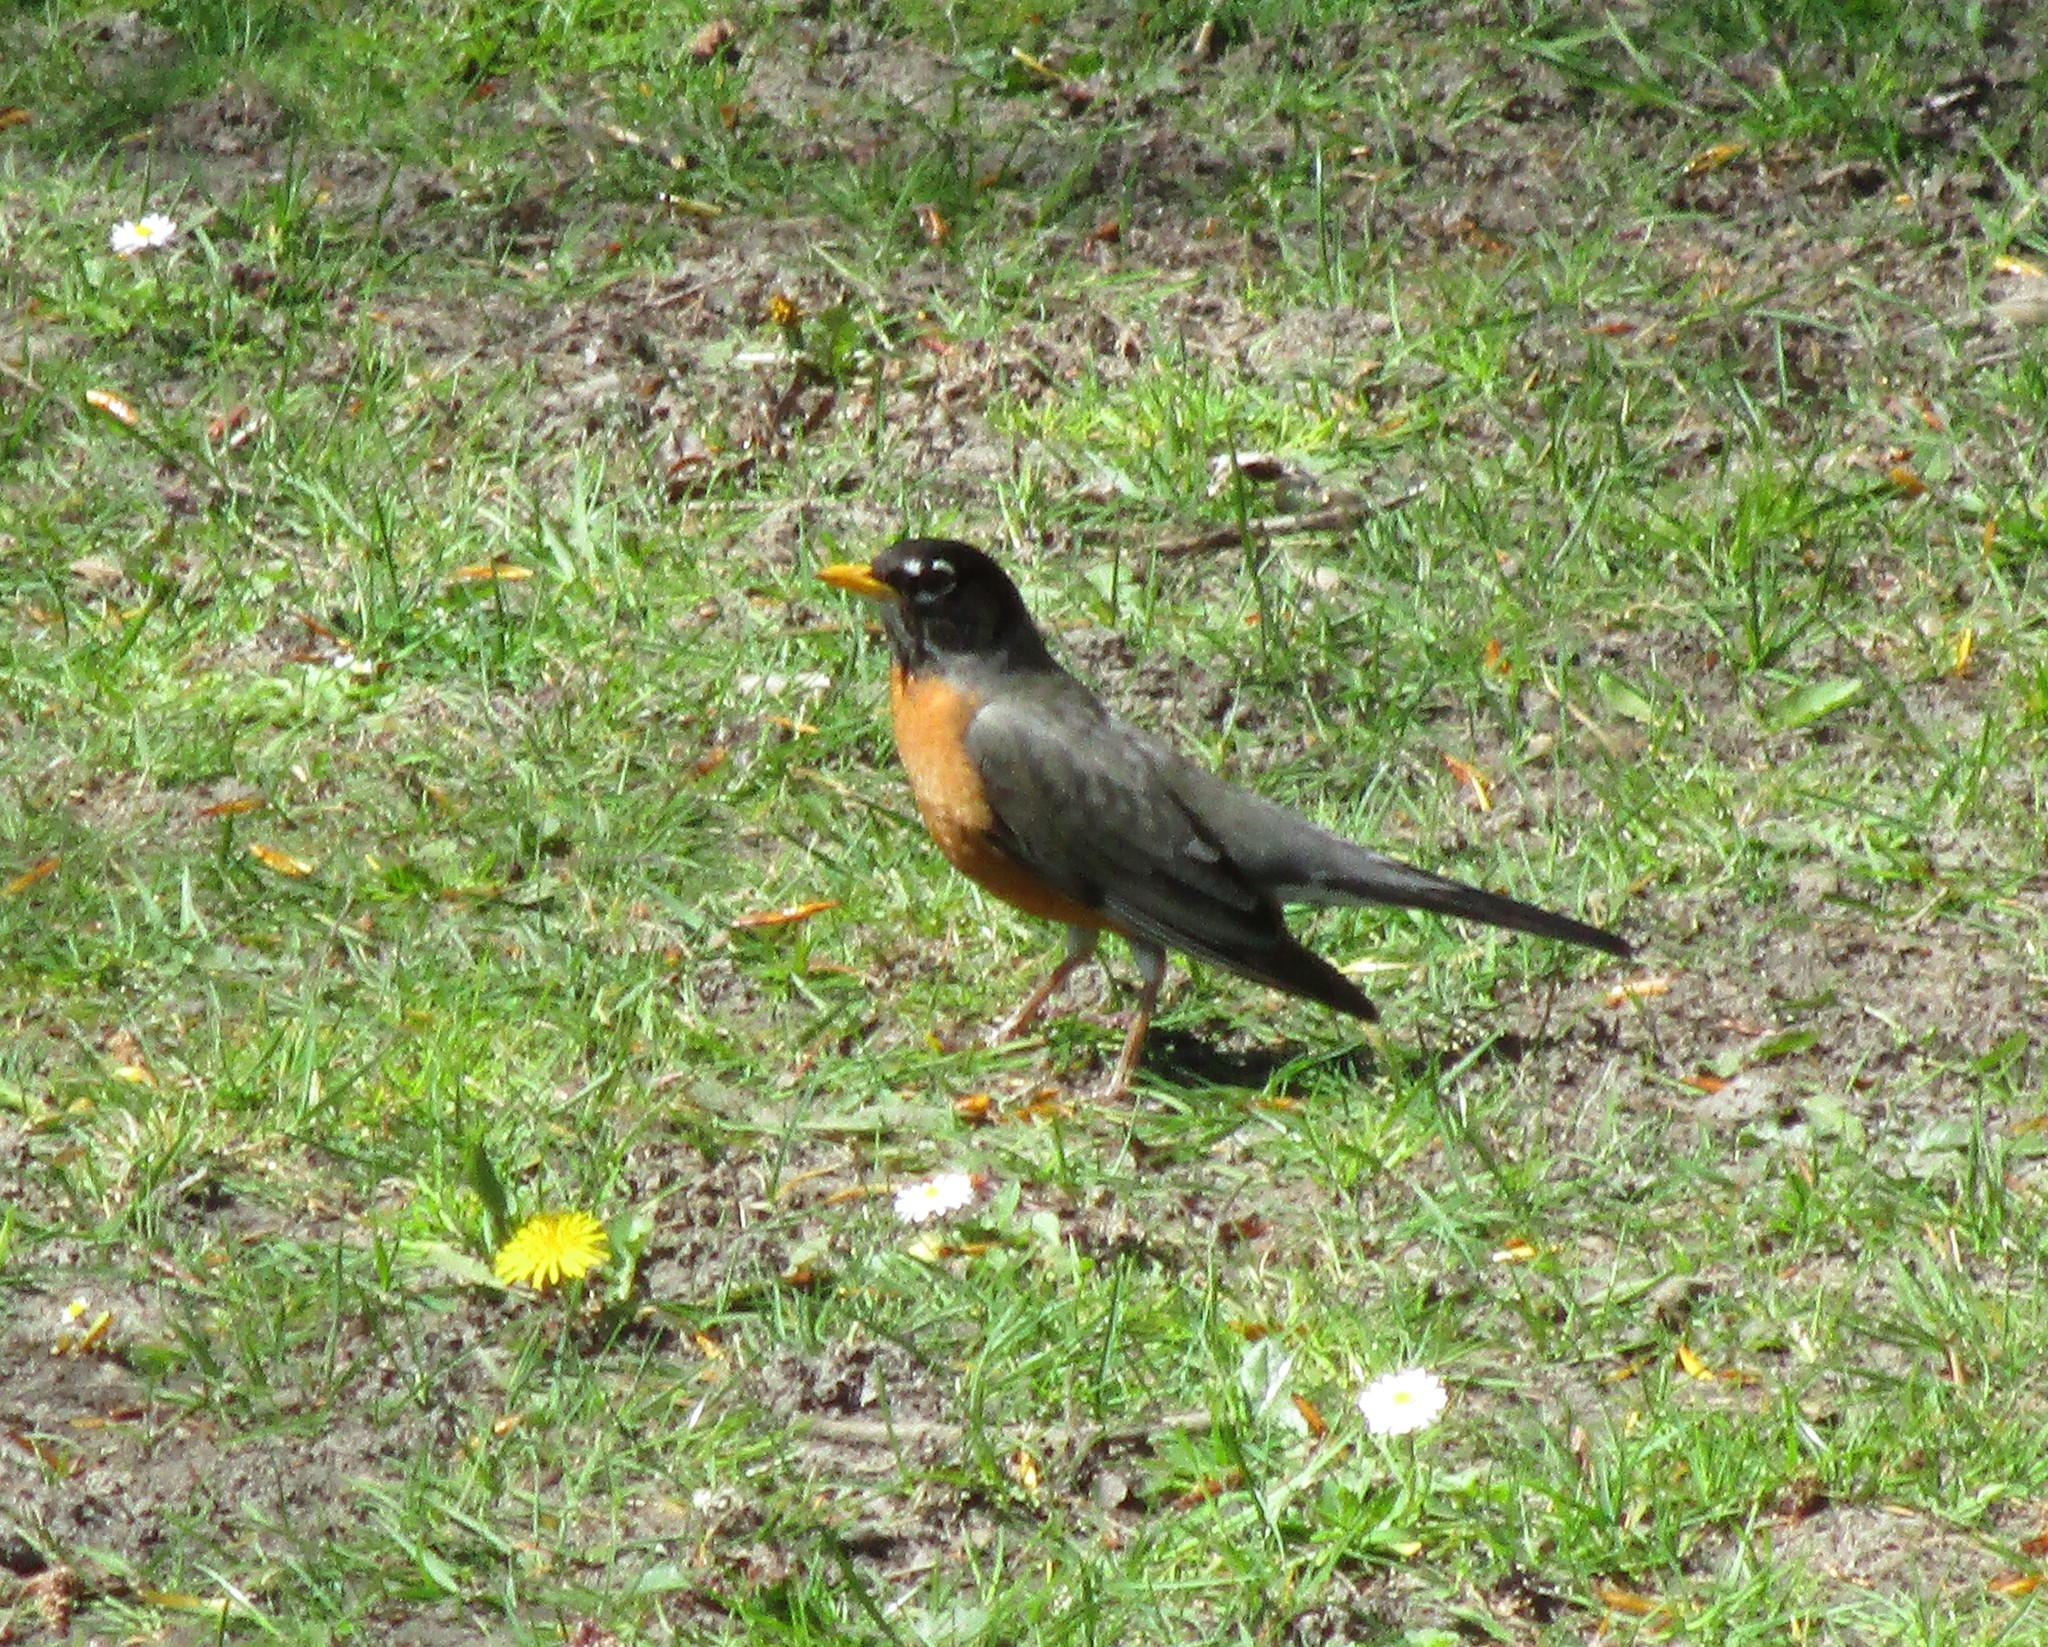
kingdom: Animalia
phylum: Chordata
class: Aves
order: Passeriformes
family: Turdidae
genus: Turdus
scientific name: Turdus migratorius
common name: American robin
